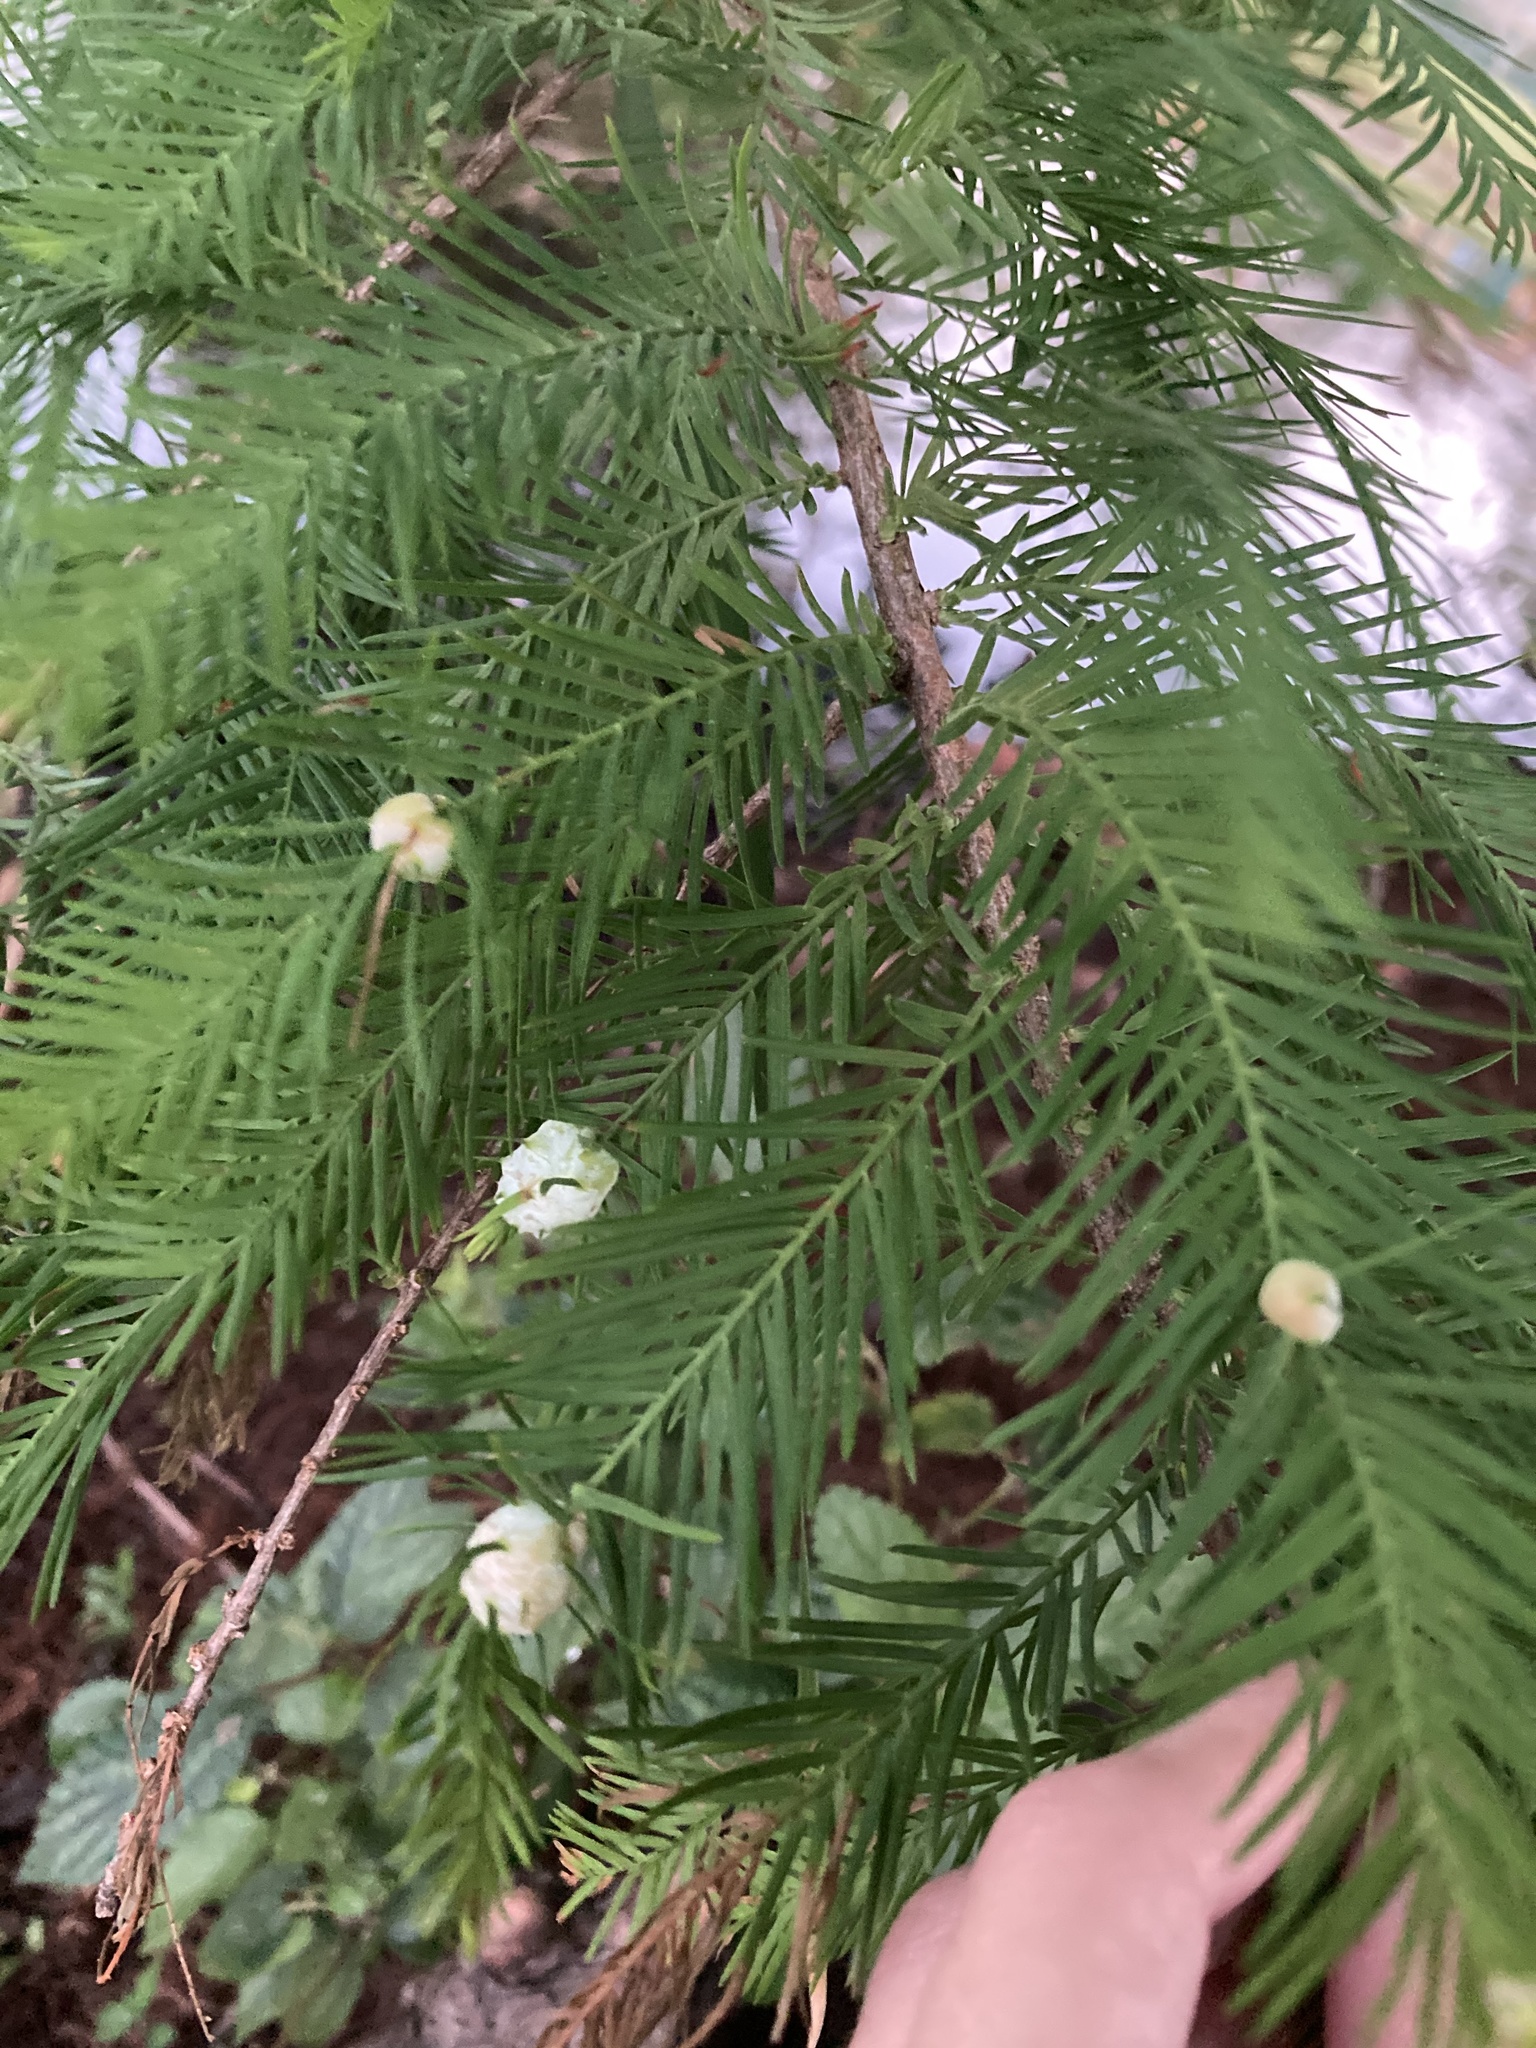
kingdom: Animalia
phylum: Arthropoda
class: Insecta
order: Diptera
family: Cecidomyiidae
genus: Taxodiomyia
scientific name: Taxodiomyia cupressiananassa
